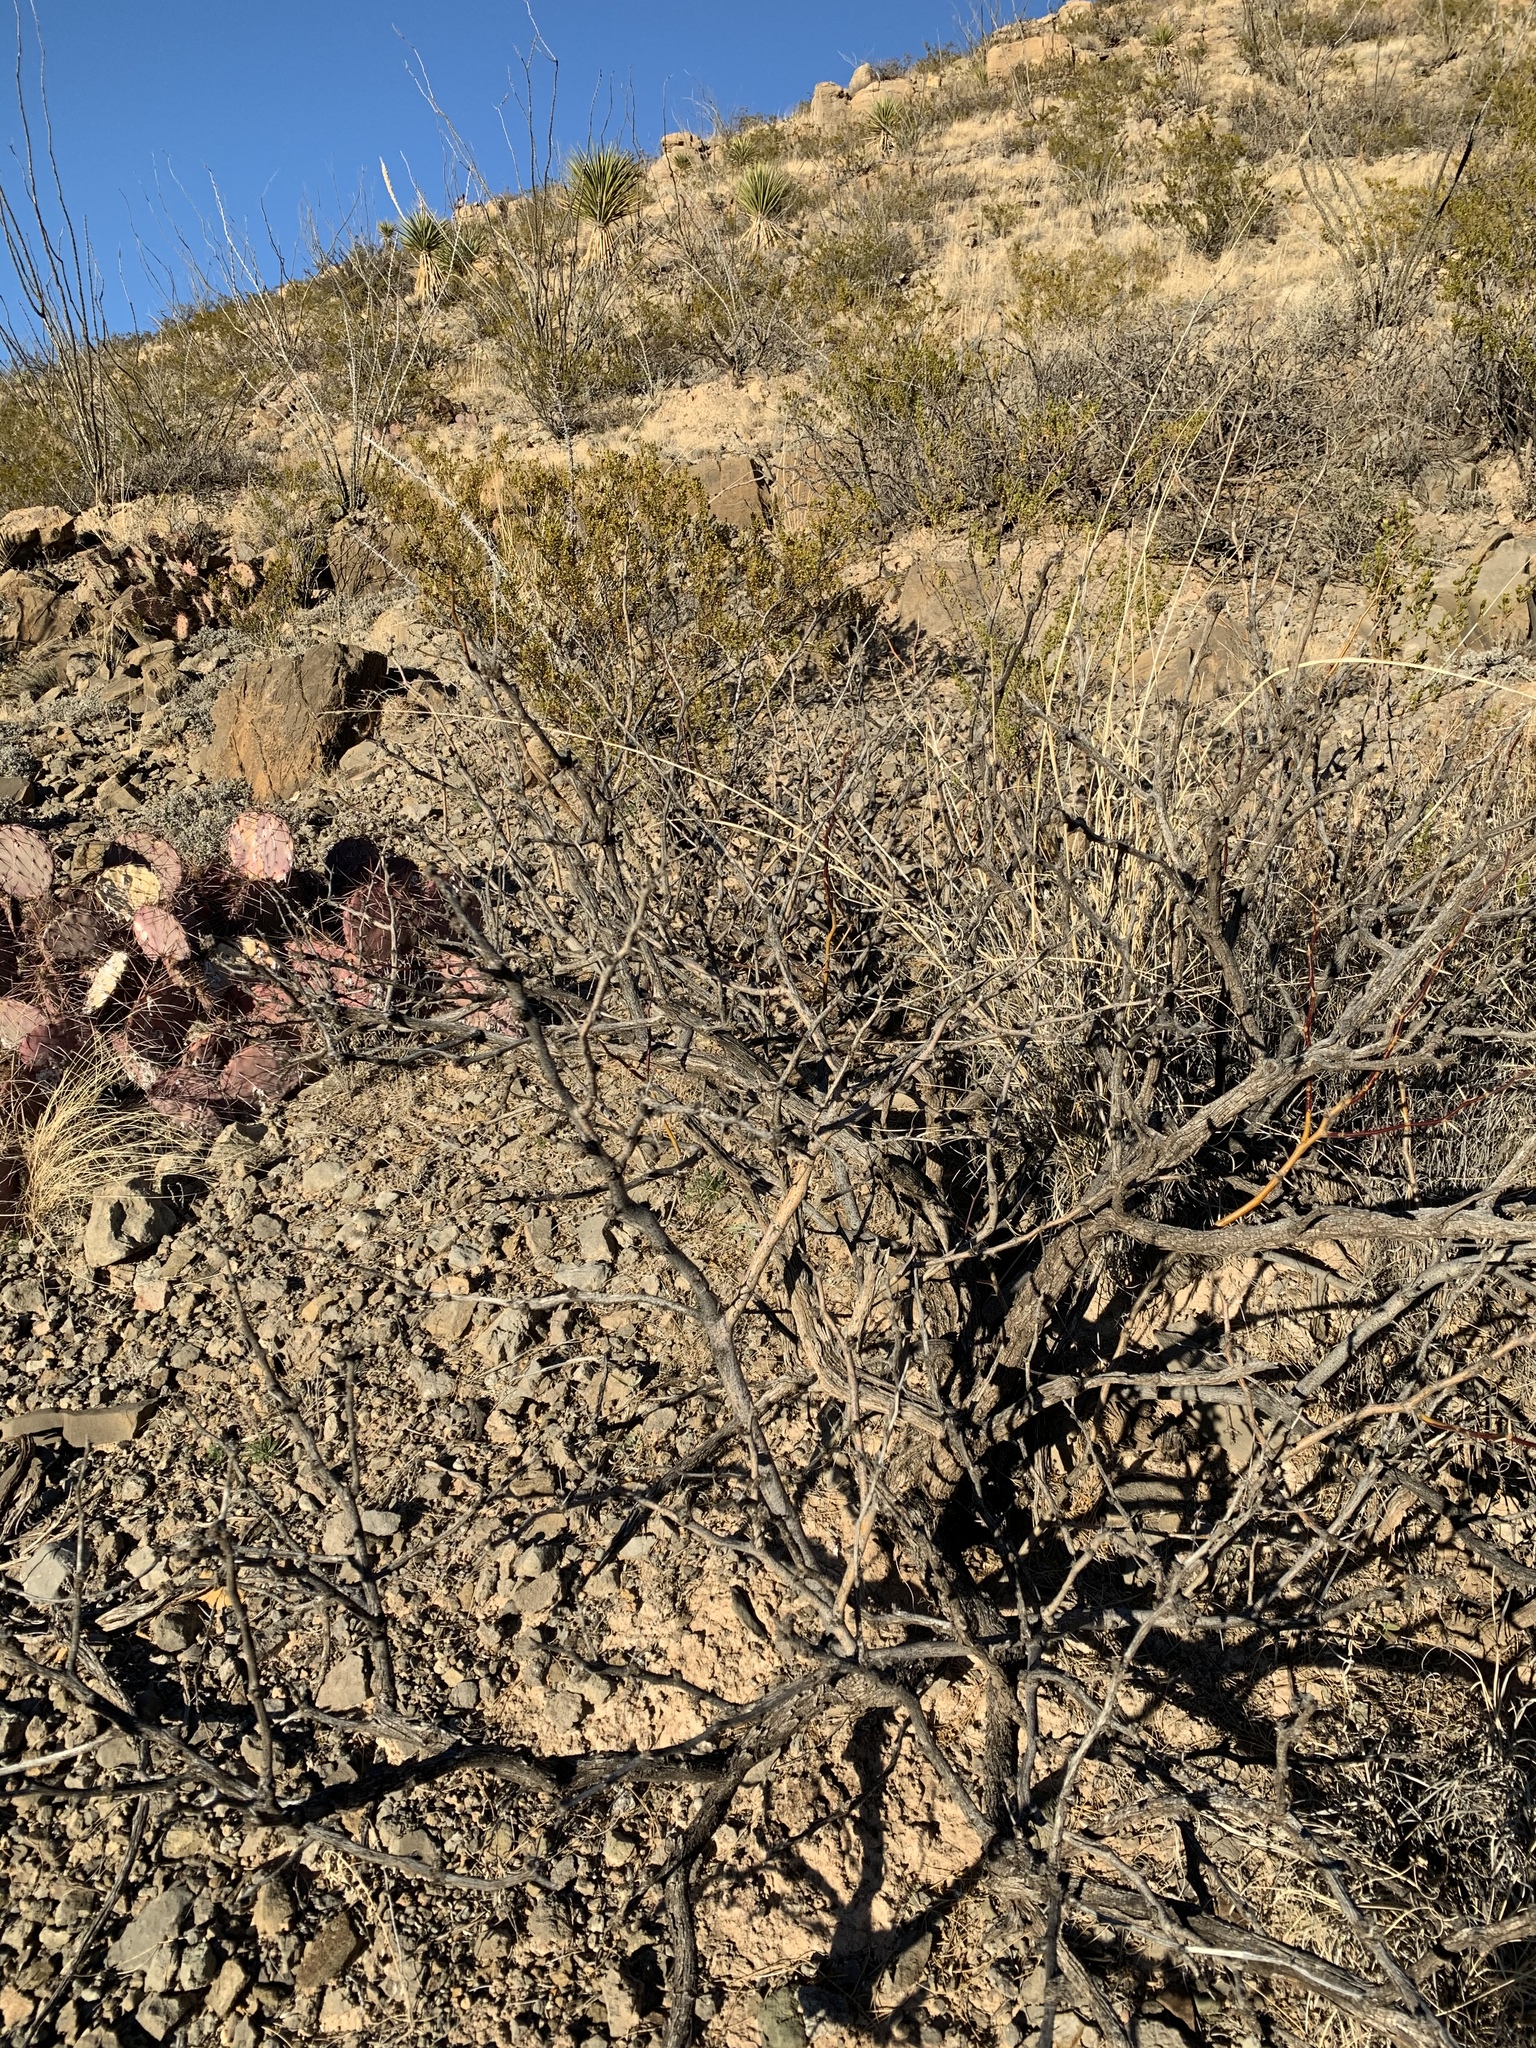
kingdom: Plantae
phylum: Tracheophyta
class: Magnoliopsida
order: Fabales
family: Fabaceae
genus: Prosopis
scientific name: Prosopis glandulosa
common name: Honey mesquite
